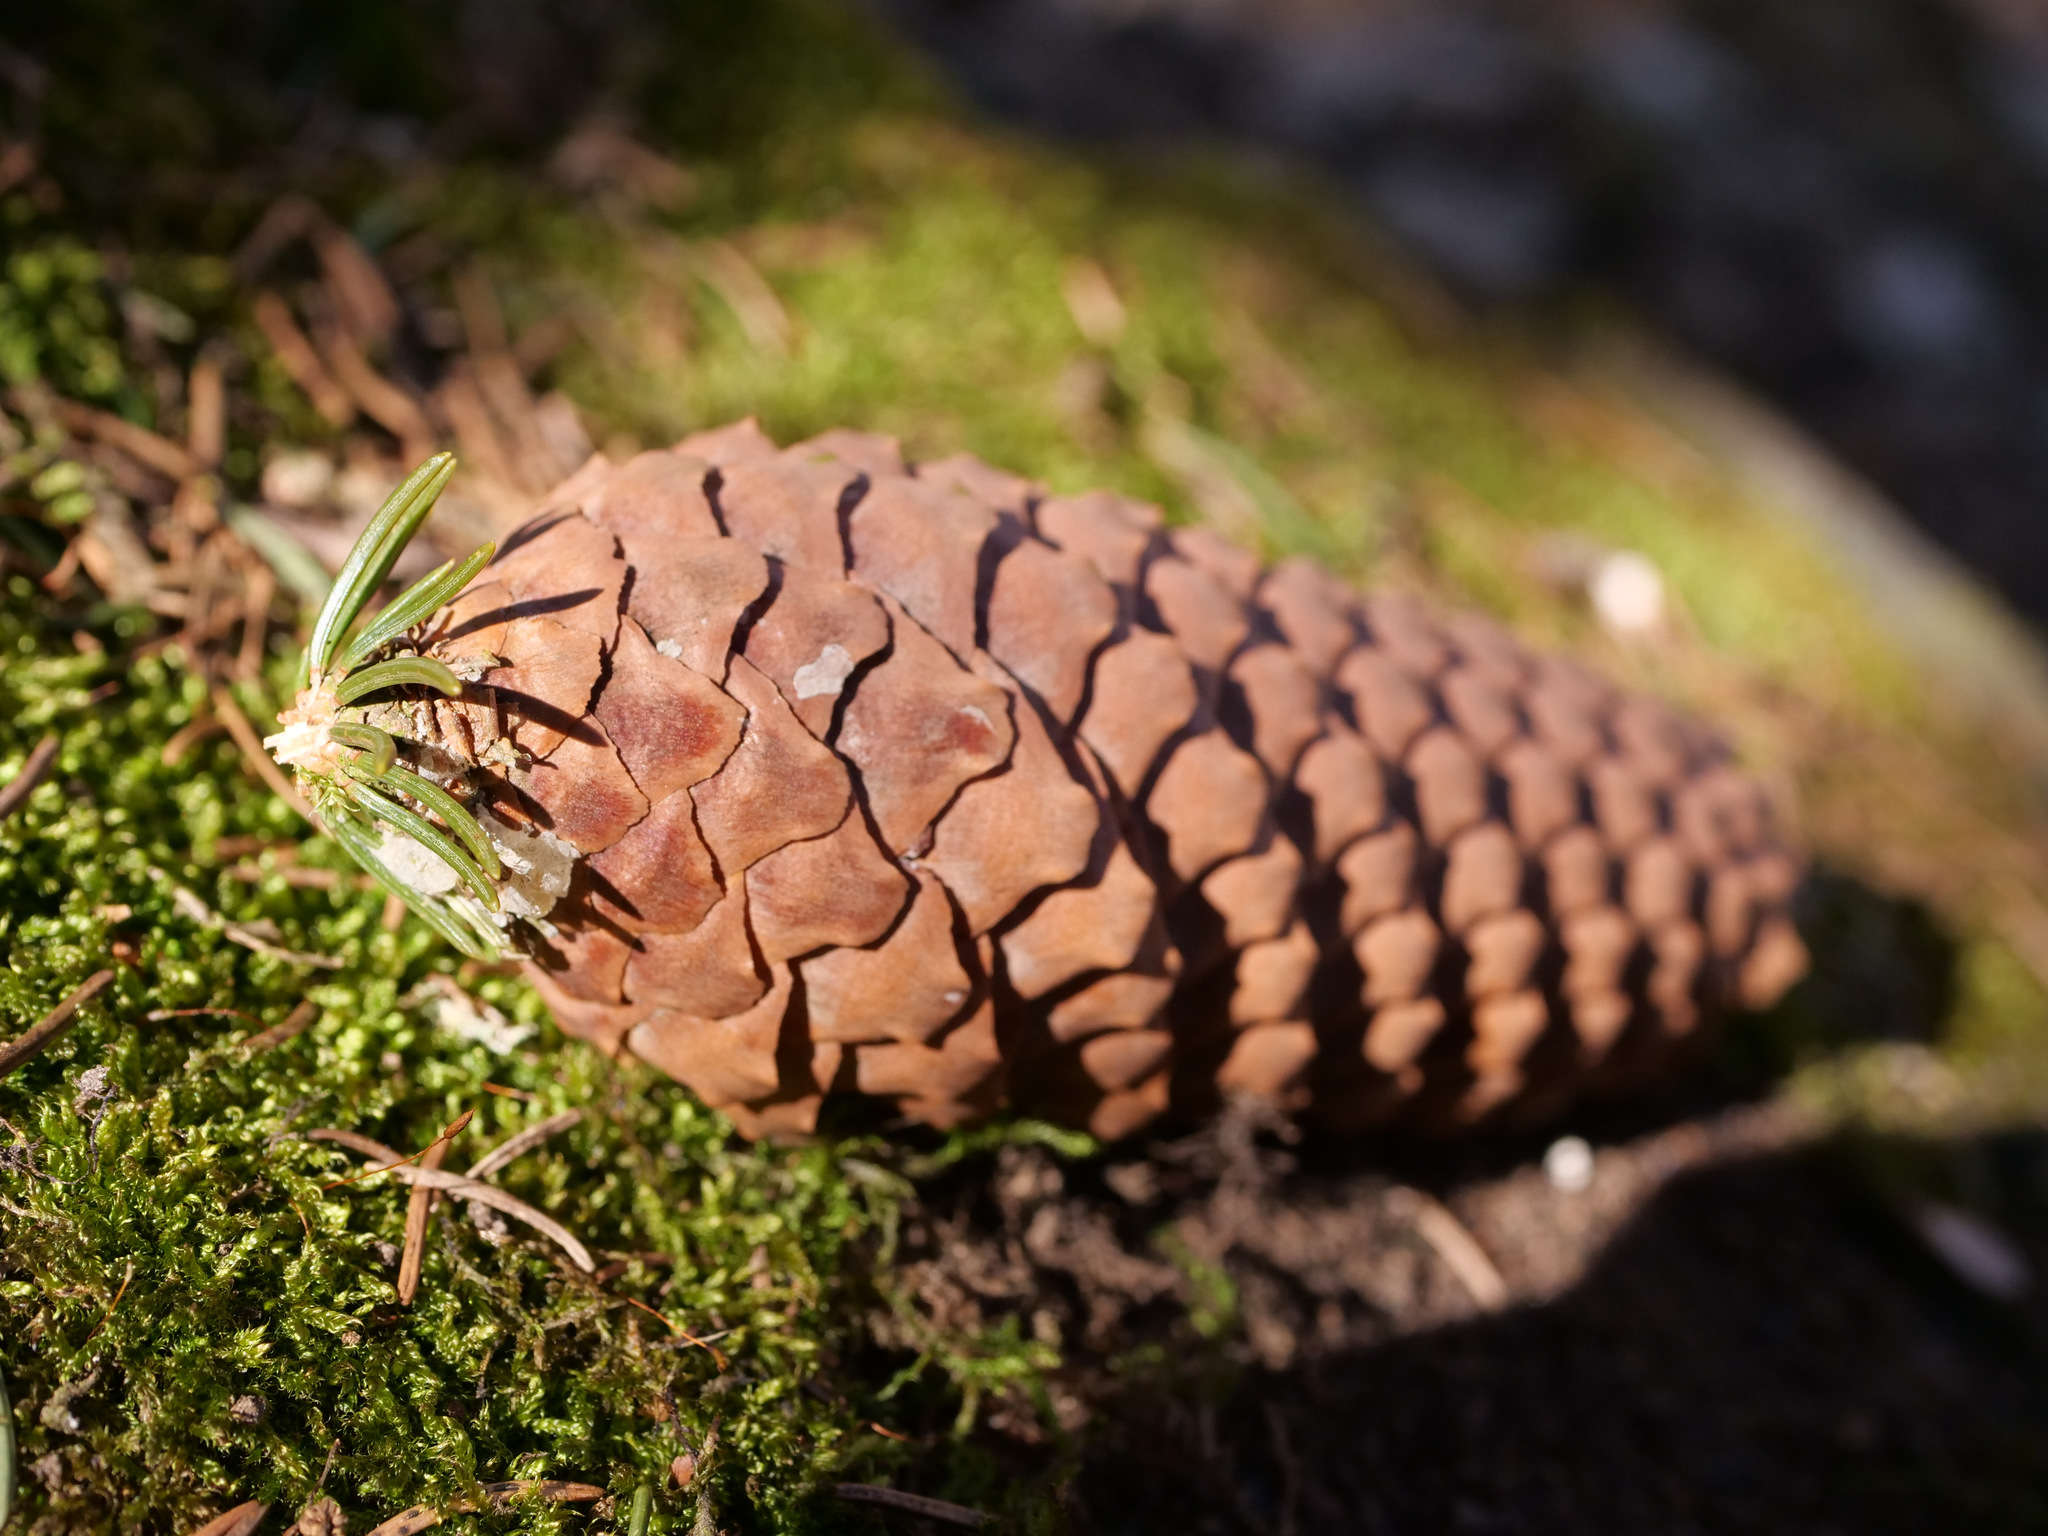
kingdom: Plantae
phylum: Tracheophyta
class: Pinopsida
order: Pinales
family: Pinaceae
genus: Picea
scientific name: Picea abies
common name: Norway spruce
